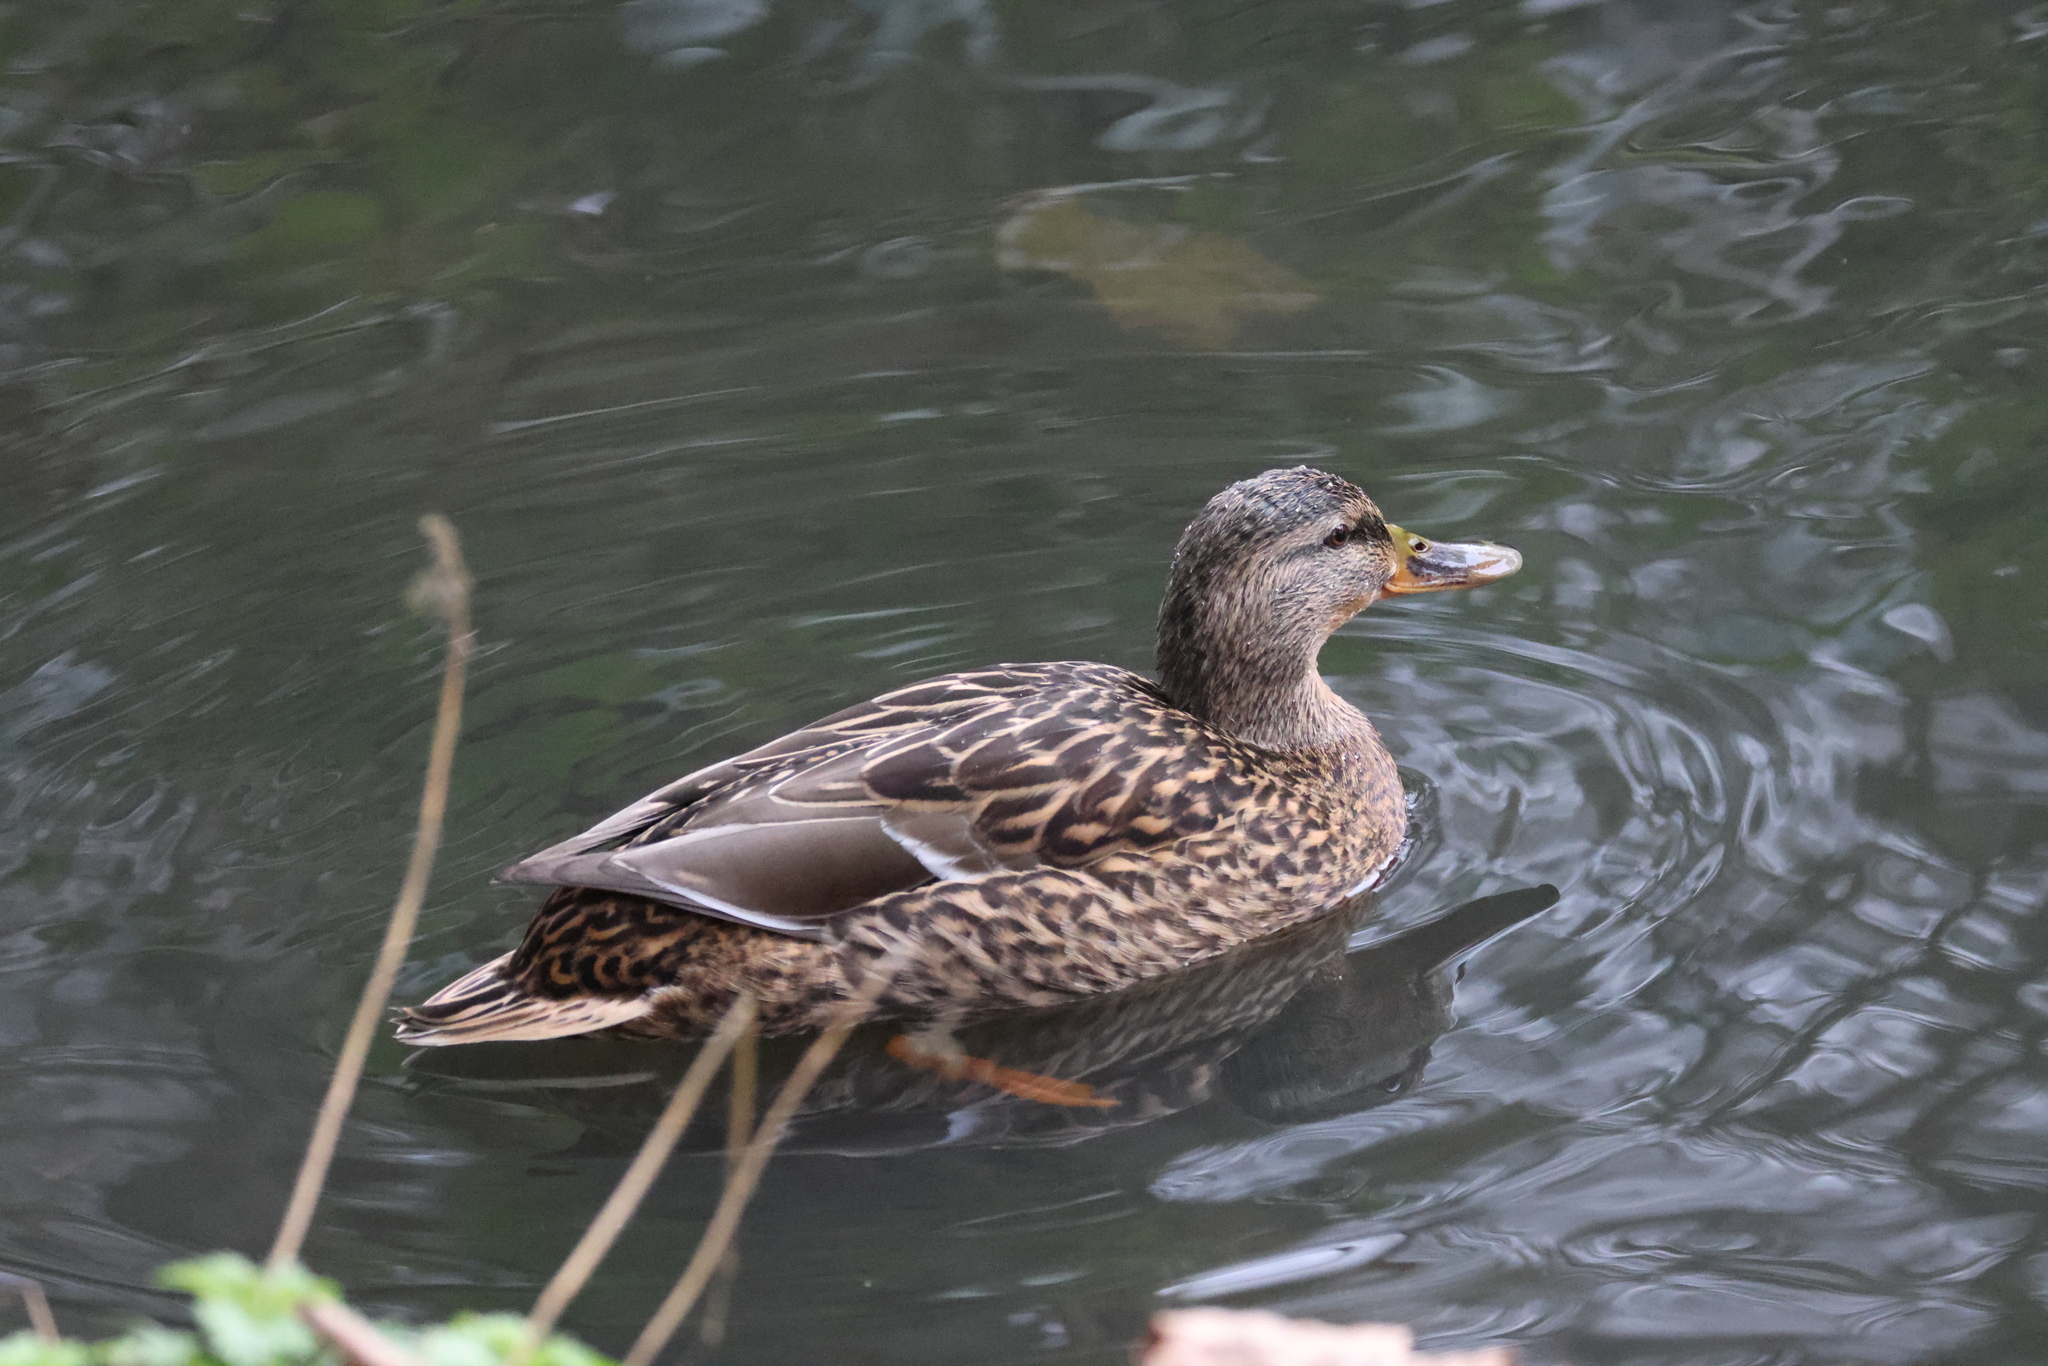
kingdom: Animalia
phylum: Chordata
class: Aves
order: Anseriformes
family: Anatidae
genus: Anas
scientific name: Anas platyrhynchos
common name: Mallard
